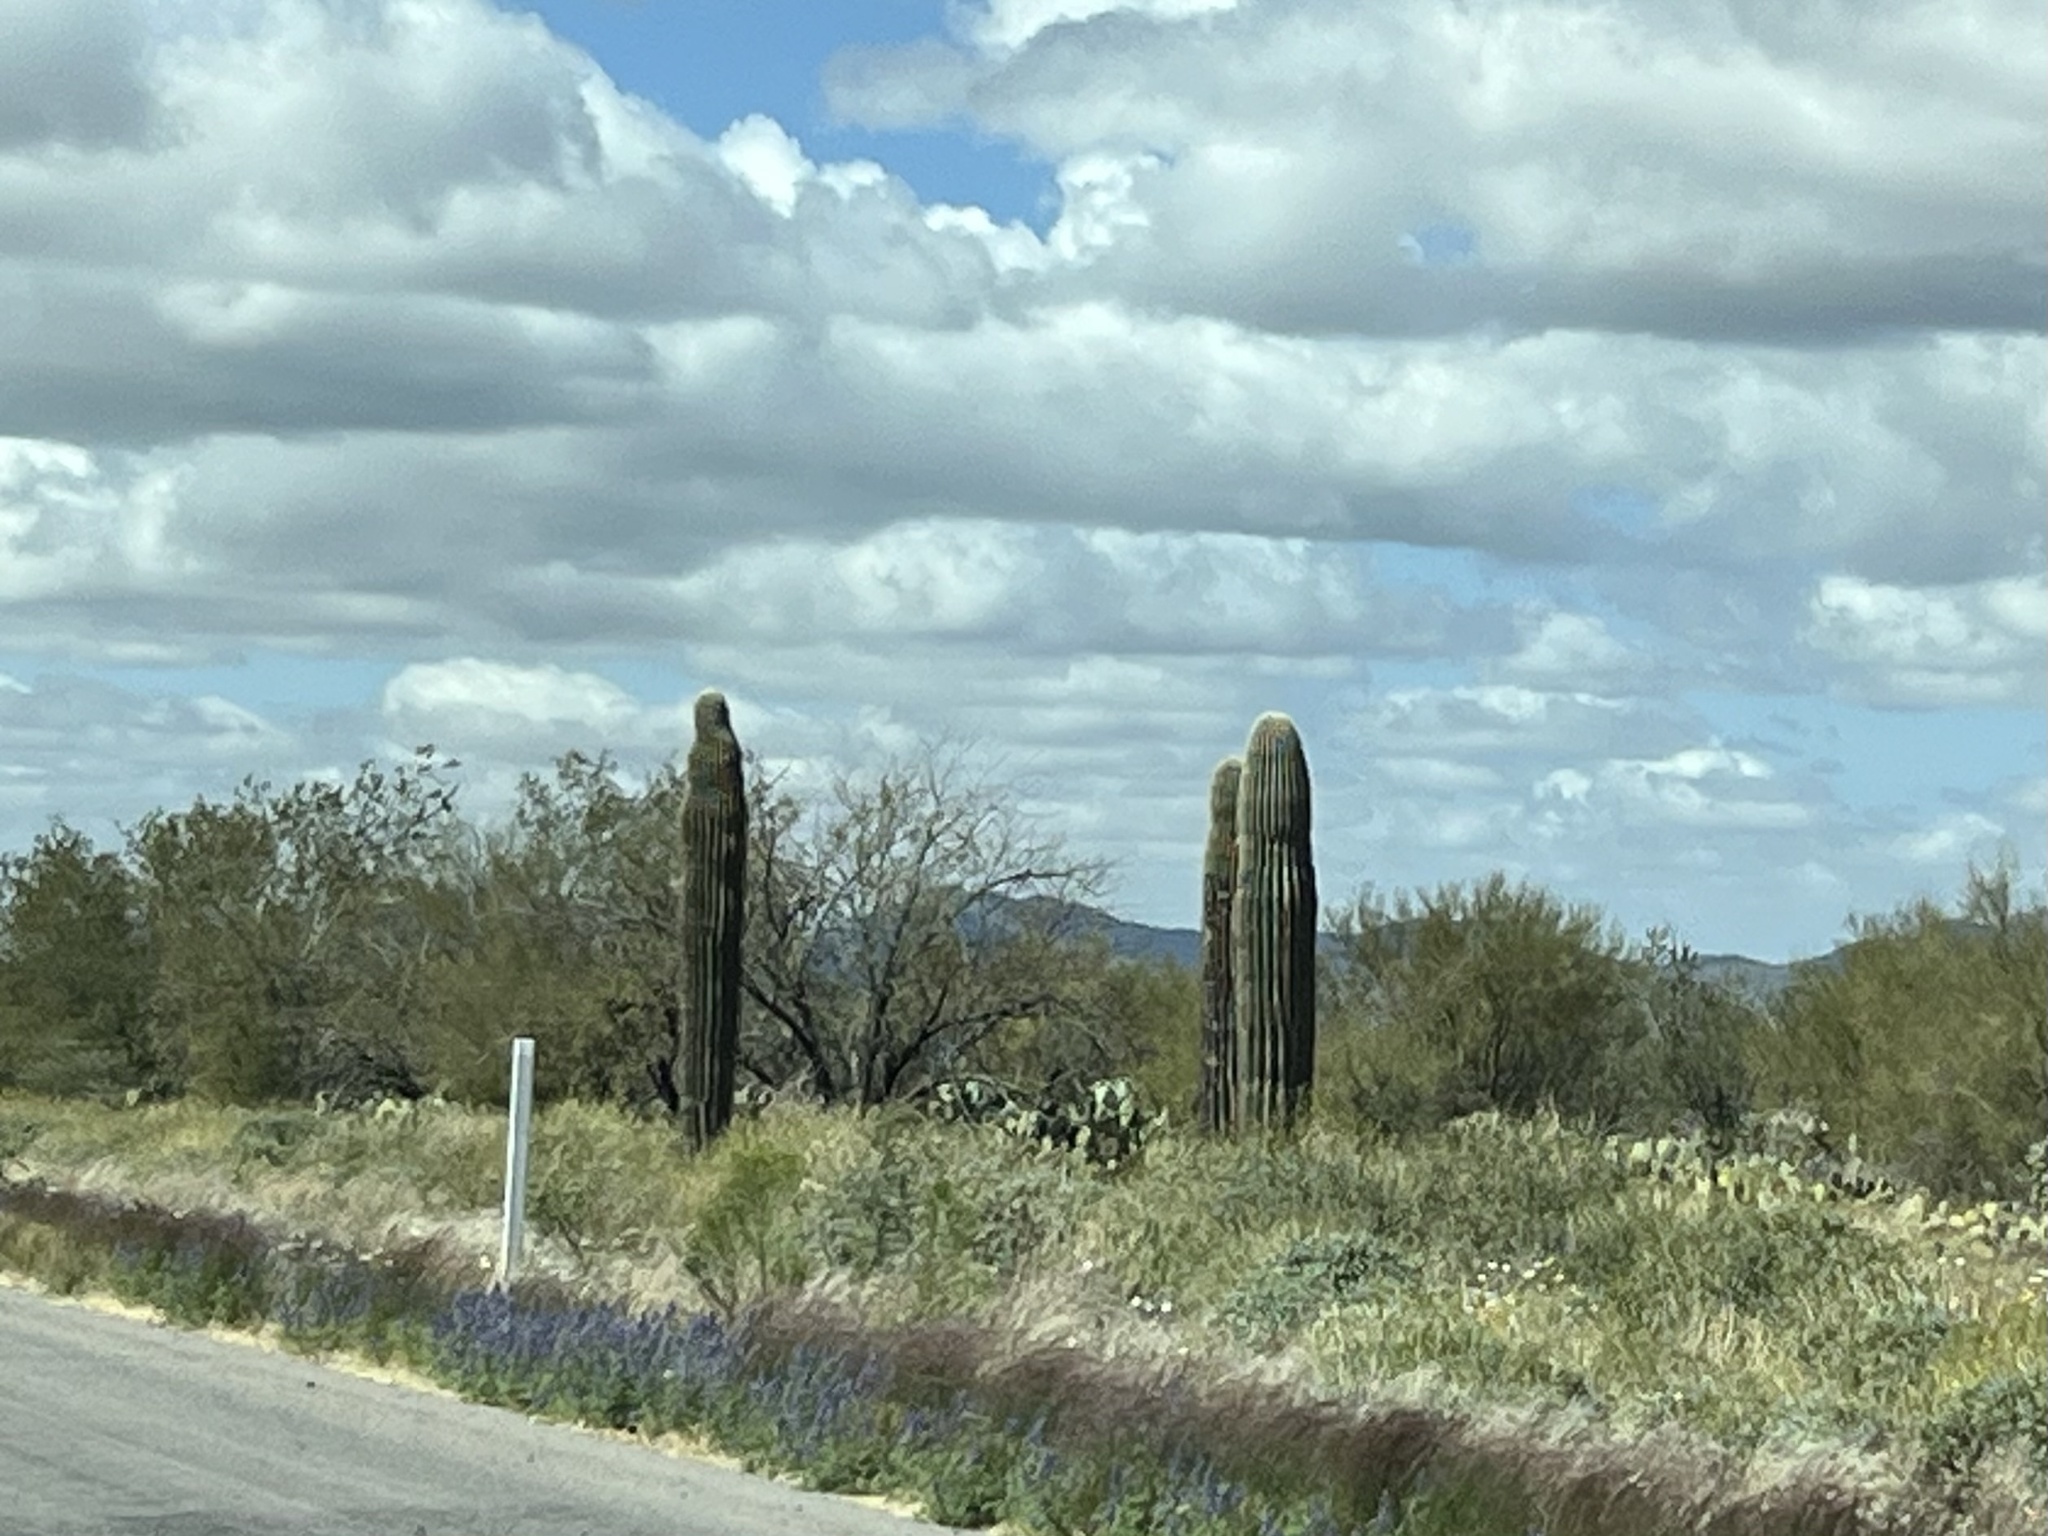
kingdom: Plantae
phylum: Tracheophyta
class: Magnoliopsida
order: Caryophyllales
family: Cactaceae
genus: Carnegiea
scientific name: Carnegiea gigantea
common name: Saguaro
